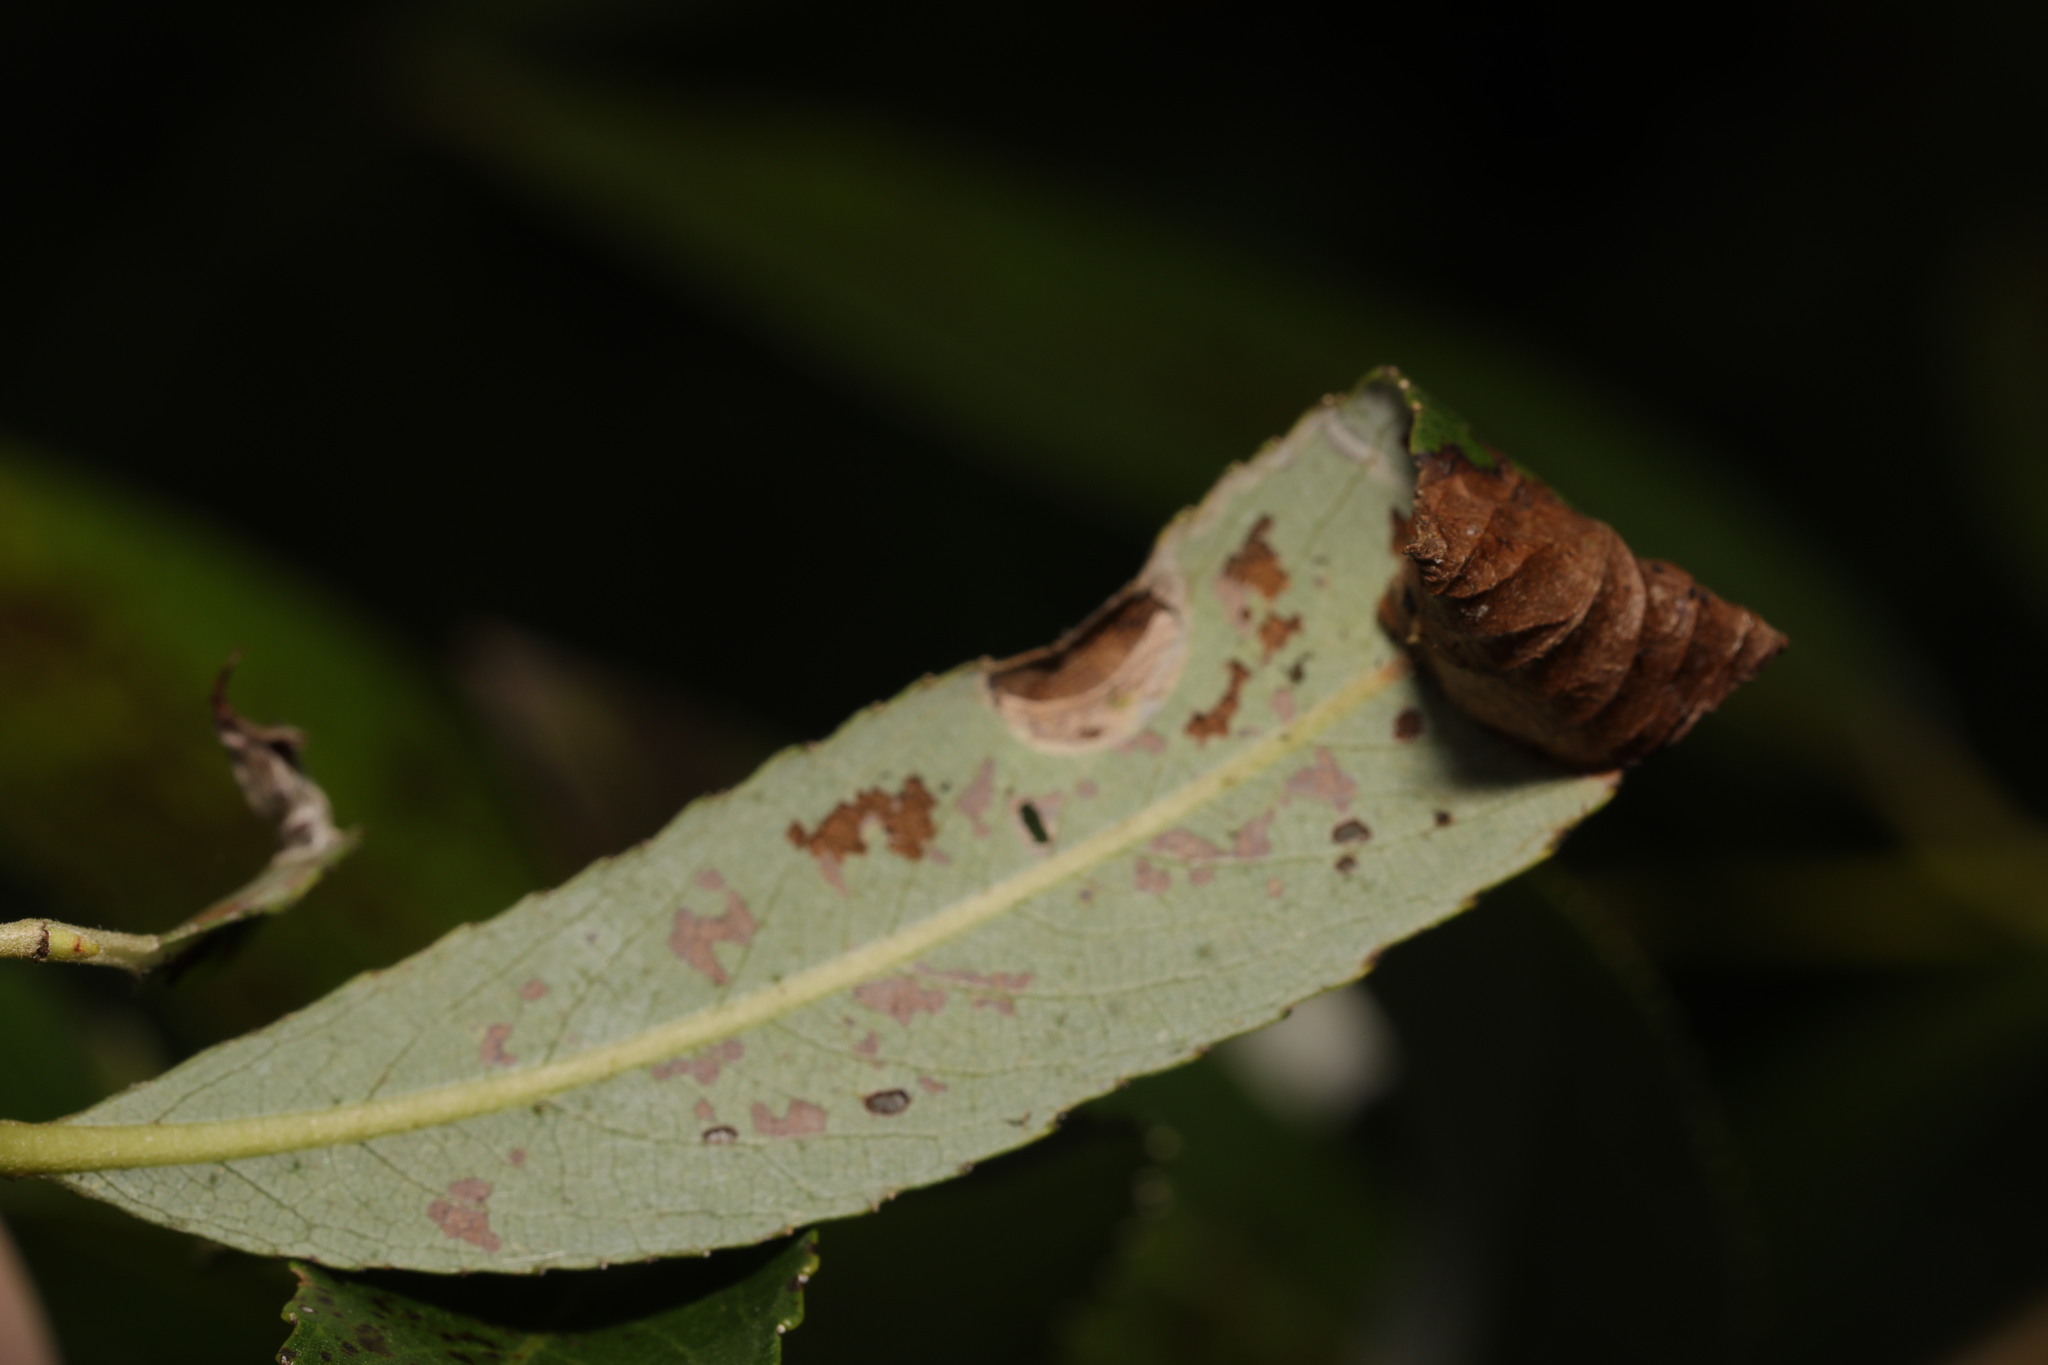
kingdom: Animalia
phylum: Arthropoda
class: Insecta
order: Lepidoptera
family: Gracillariidae
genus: Caloptilia
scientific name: Caloptilia stigmatella
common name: White-triangle slender
